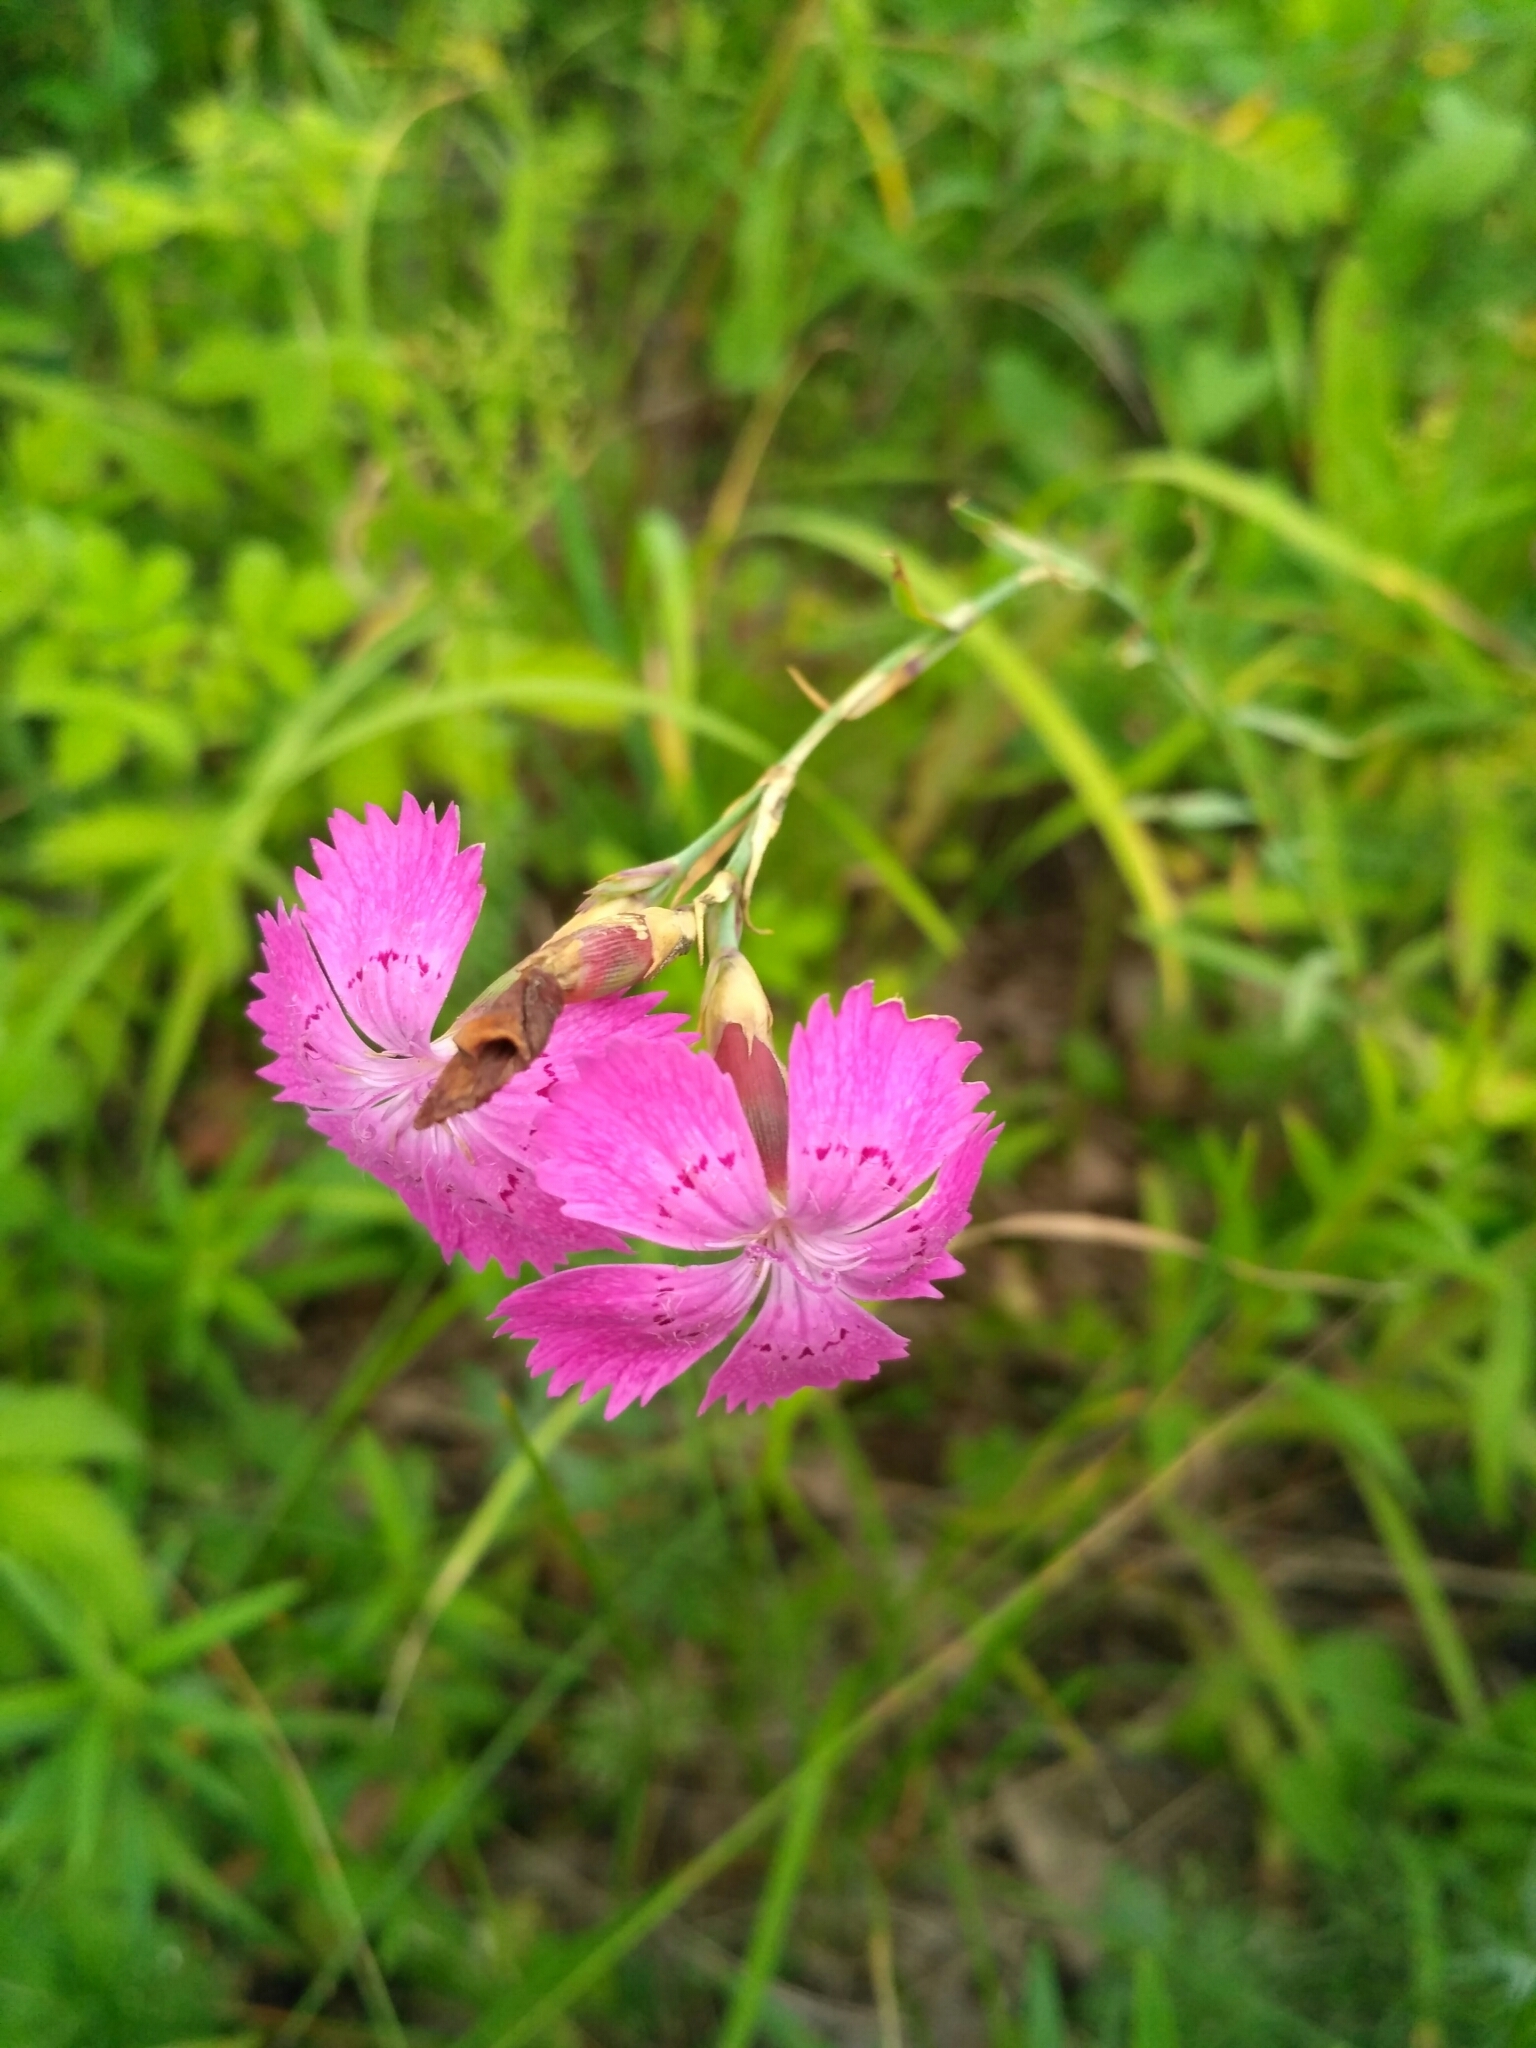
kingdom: Plantae
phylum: Tracheophyta
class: Magnoliopsida
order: Caryophyllales
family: Caryophyllaceae
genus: Dianthus
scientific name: Dianthus chinensis
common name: Rainbow pink
